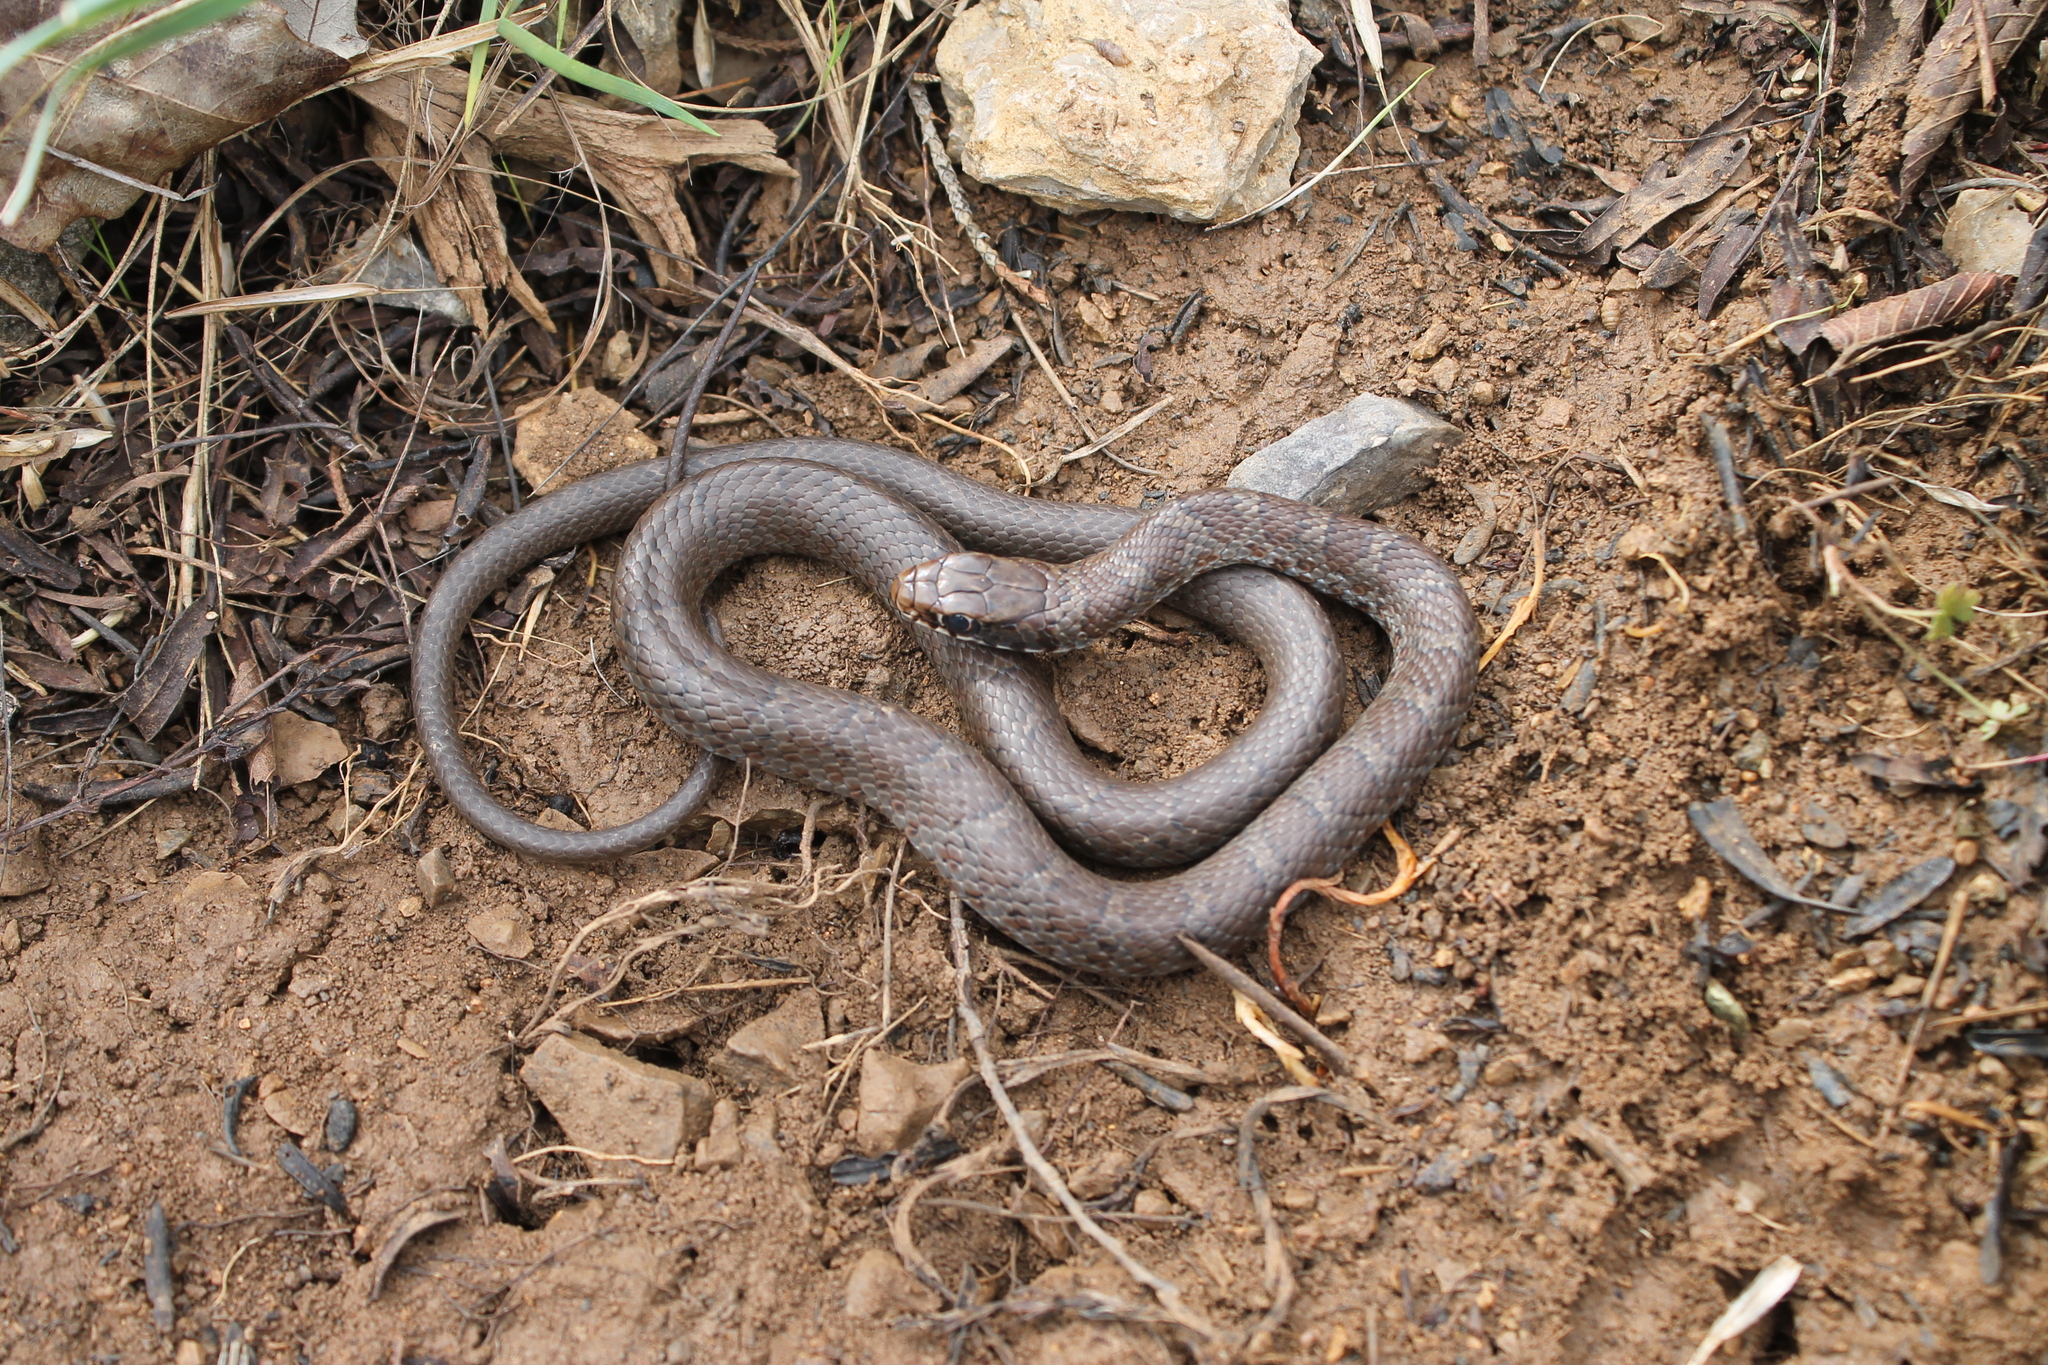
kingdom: Animalia
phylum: Chordata
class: Squamata
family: Colubridae
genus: Coluber
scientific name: Coluber constrictor
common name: Eastern racer
